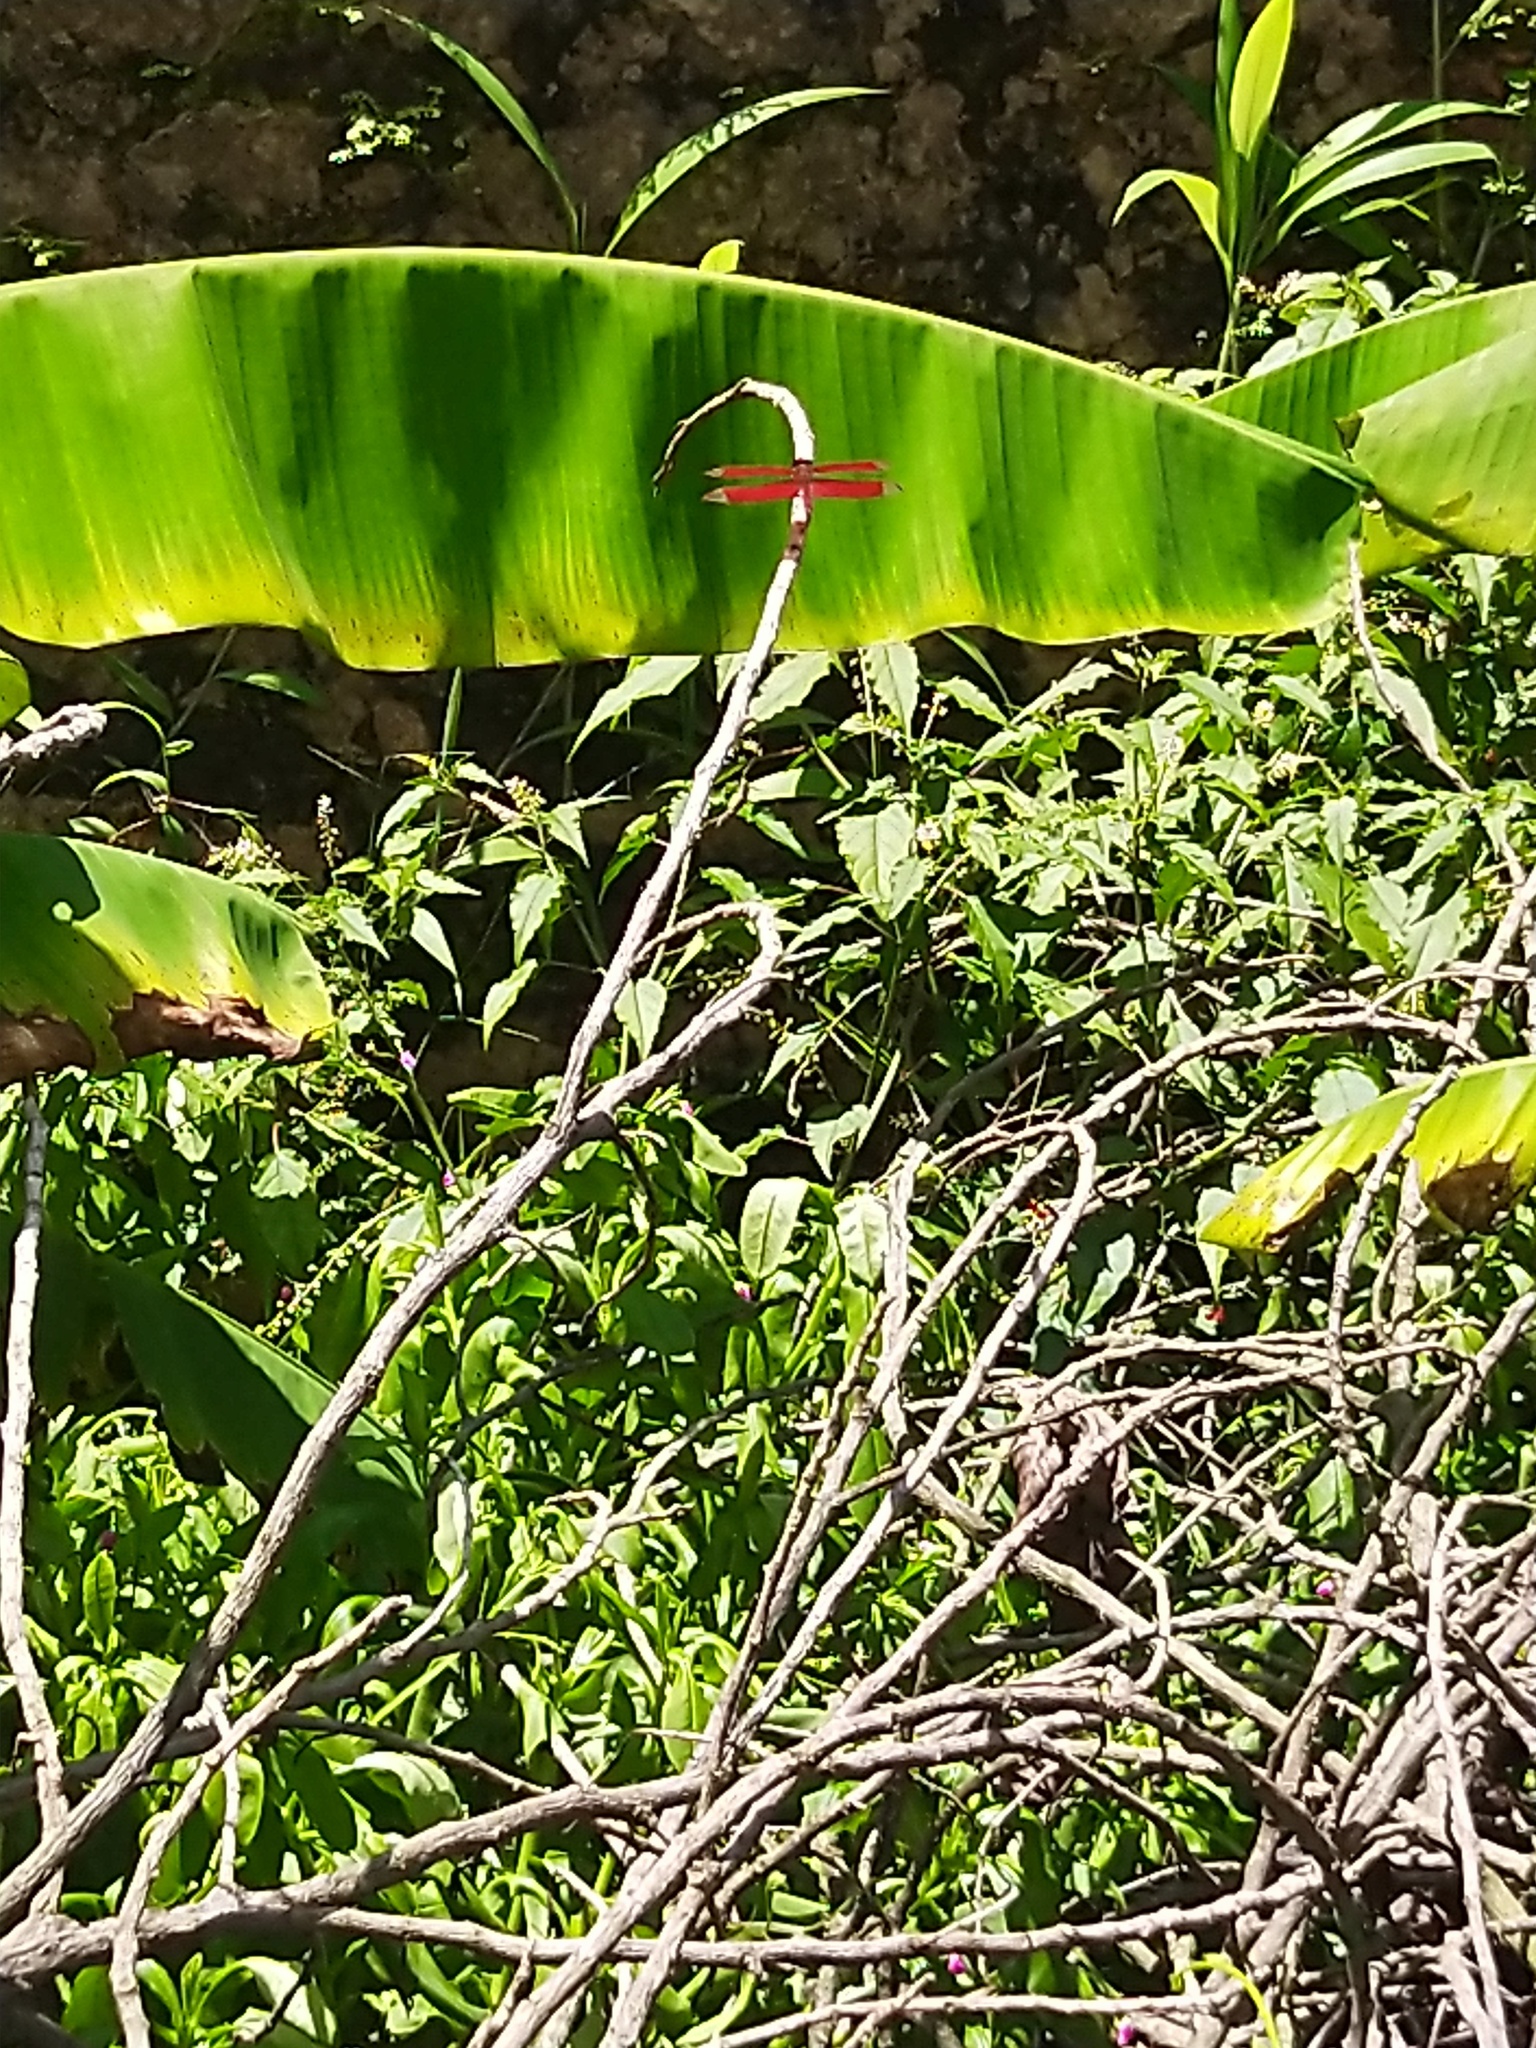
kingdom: Animalia
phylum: Arthropoda
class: Insecta
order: Odonata
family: Libellulidae
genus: Neurothemis
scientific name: Neurothemis fulvia
